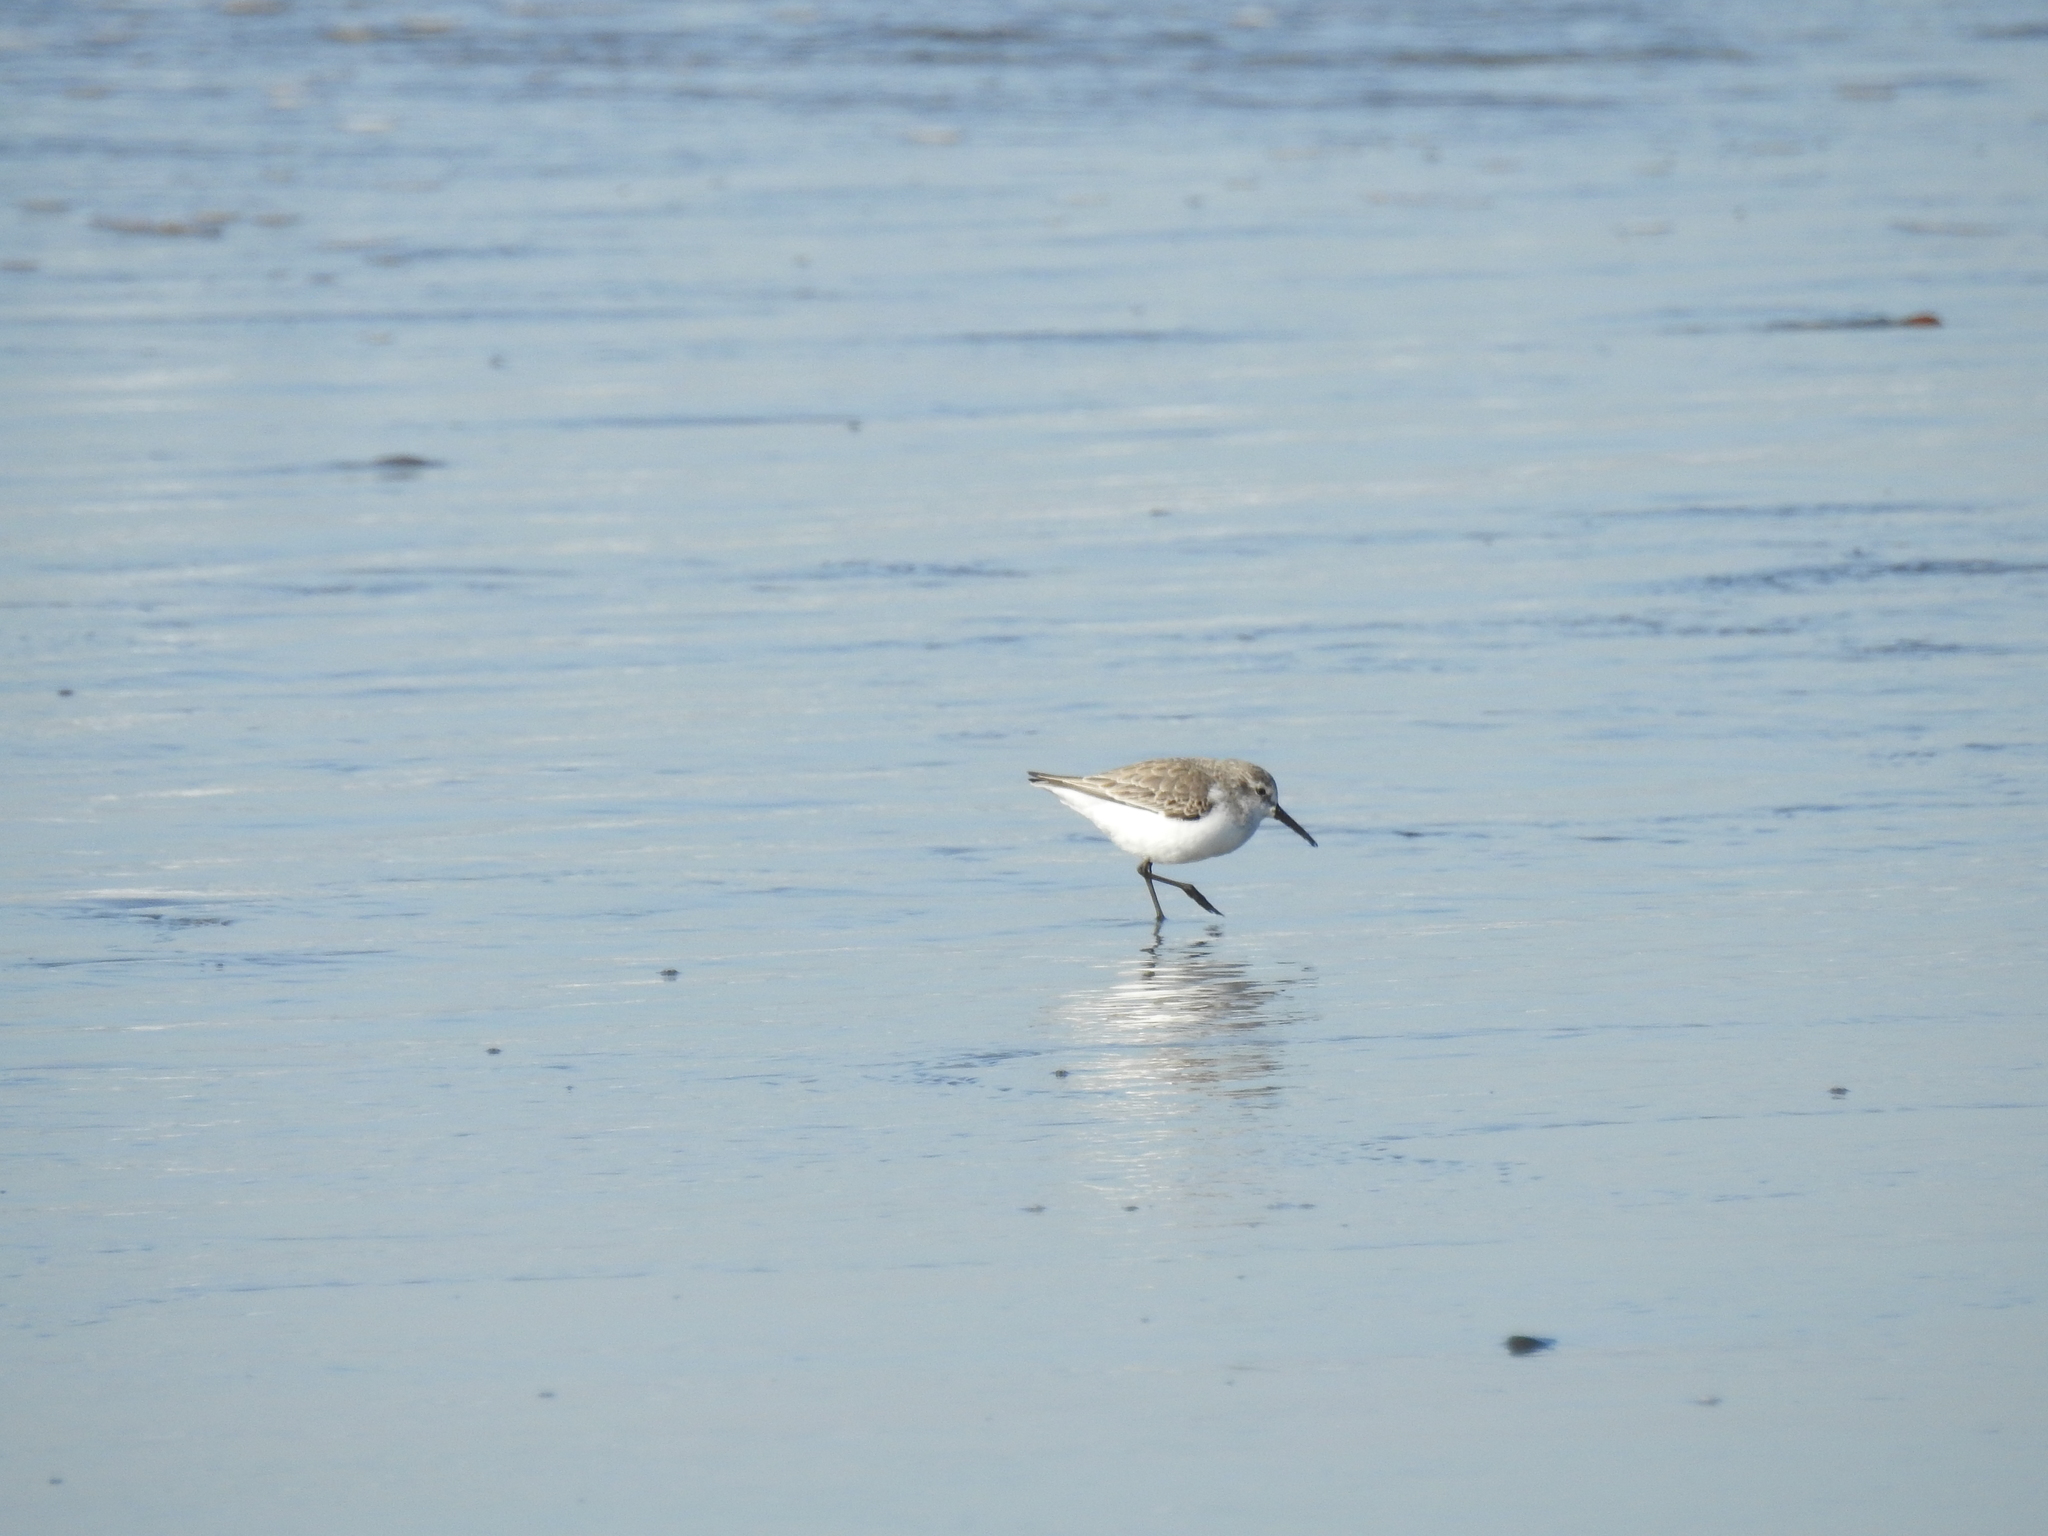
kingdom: Animalia
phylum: Chordata
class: Aves
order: Charadriiformes
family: Scolopacidae
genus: Calidris
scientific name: Calidris mauri
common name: Western sandpiper
